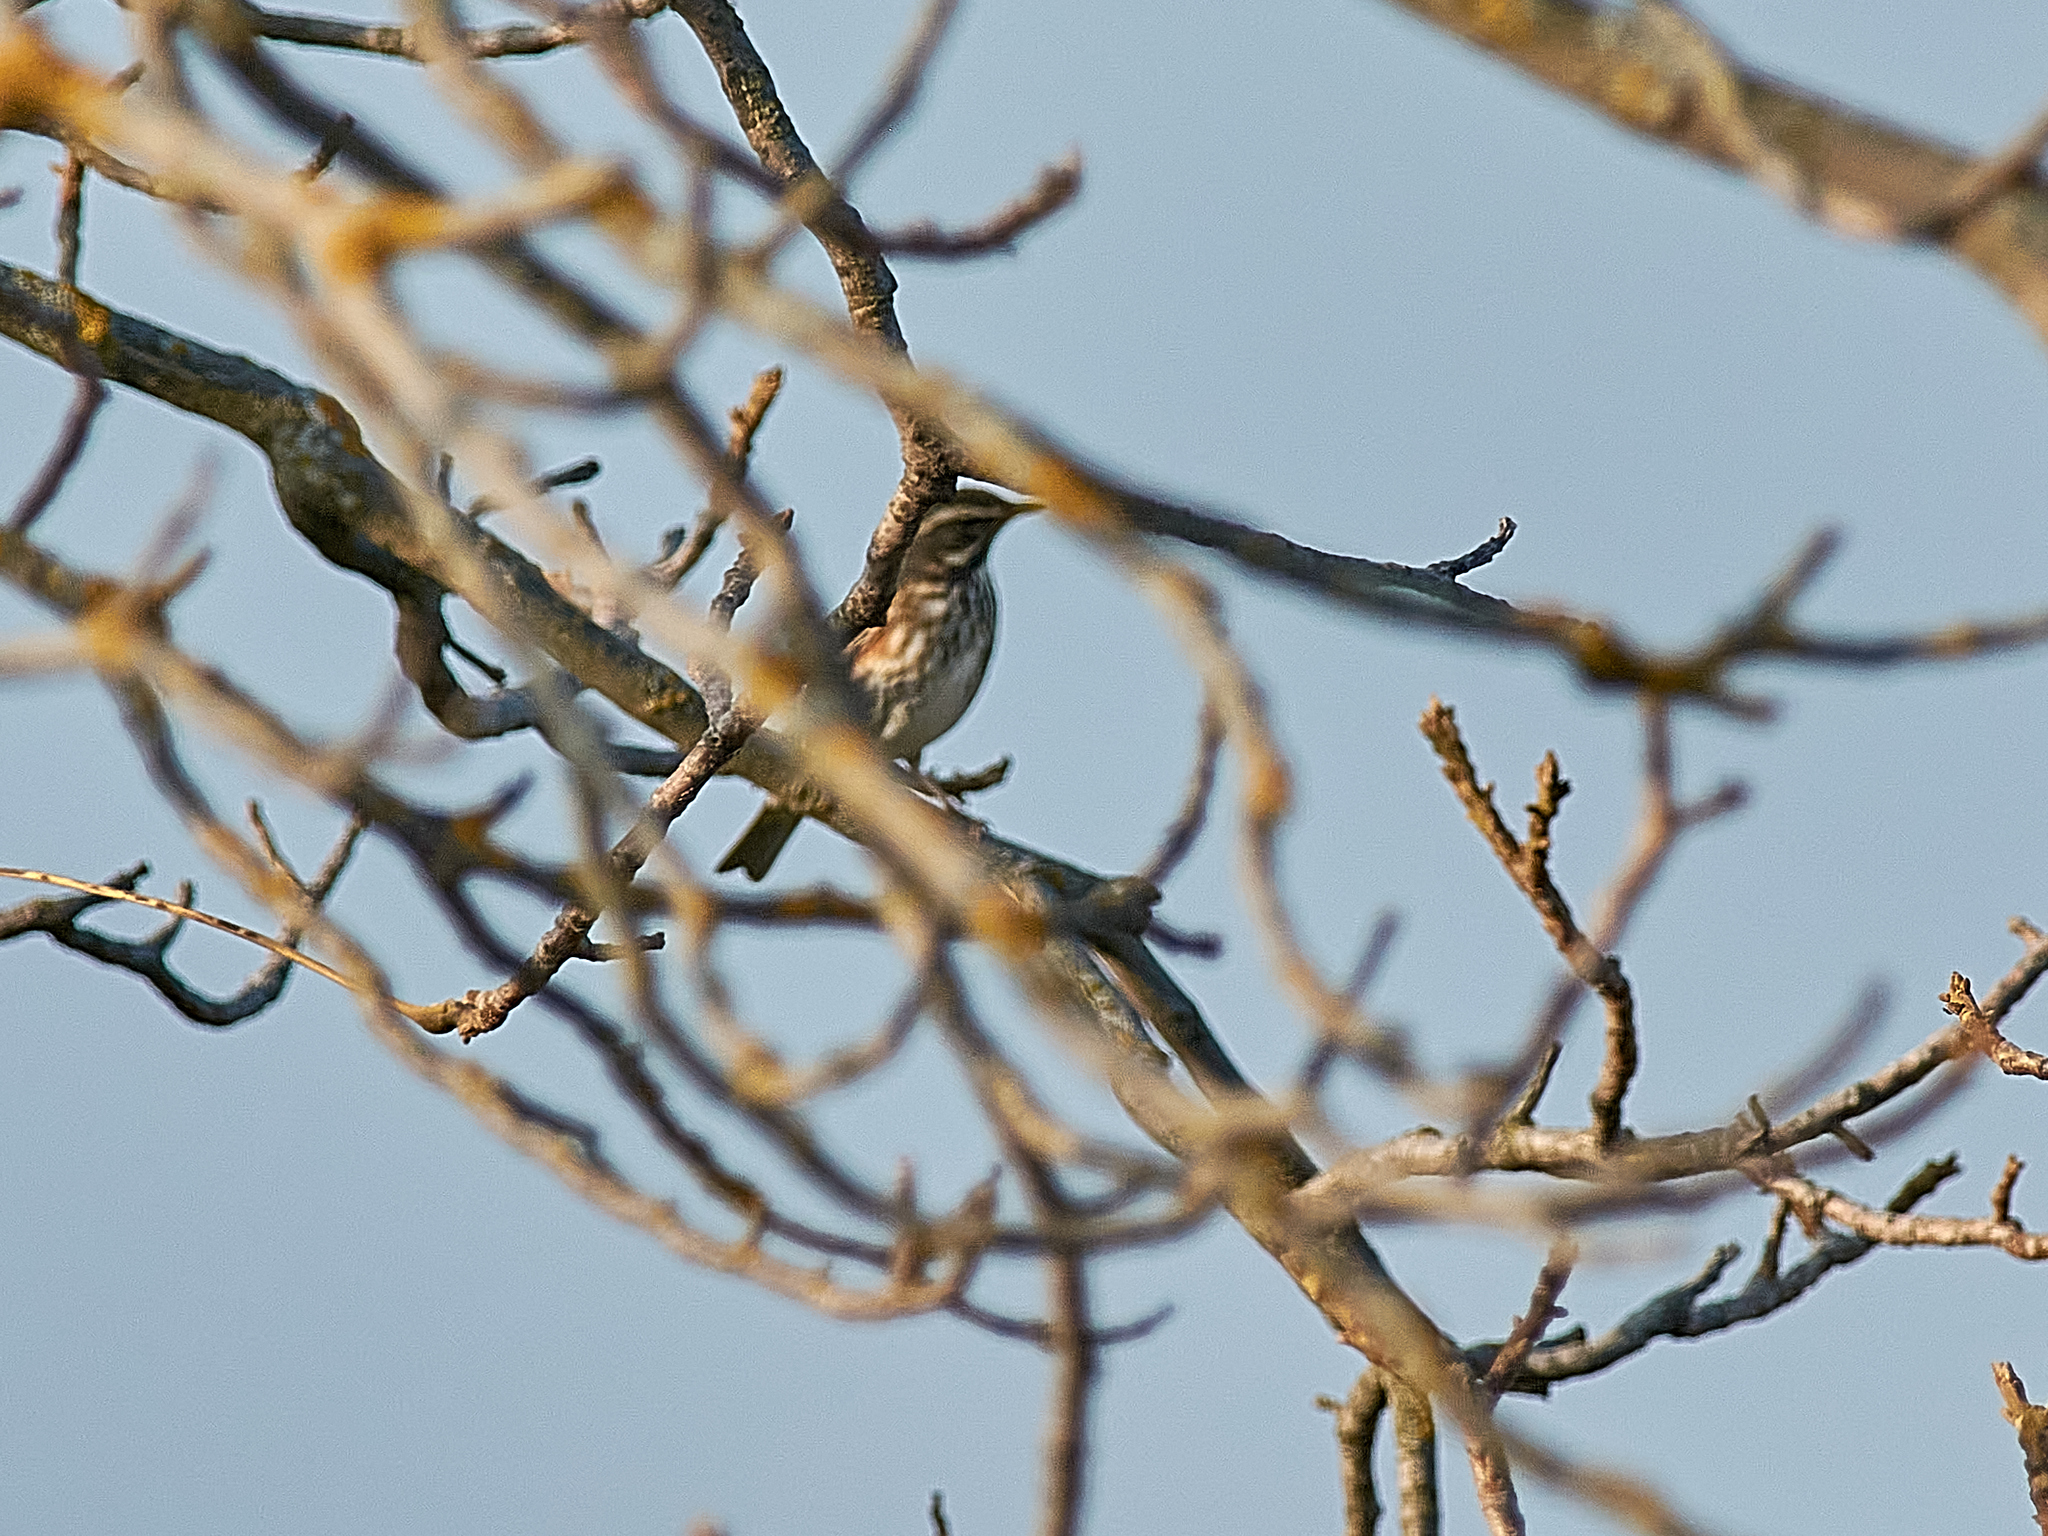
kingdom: Animalia
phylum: Chordata
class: Aves
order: Passeriformes
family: Turdidae
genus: Turdus
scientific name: Turdus iliacus
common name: Redwing
